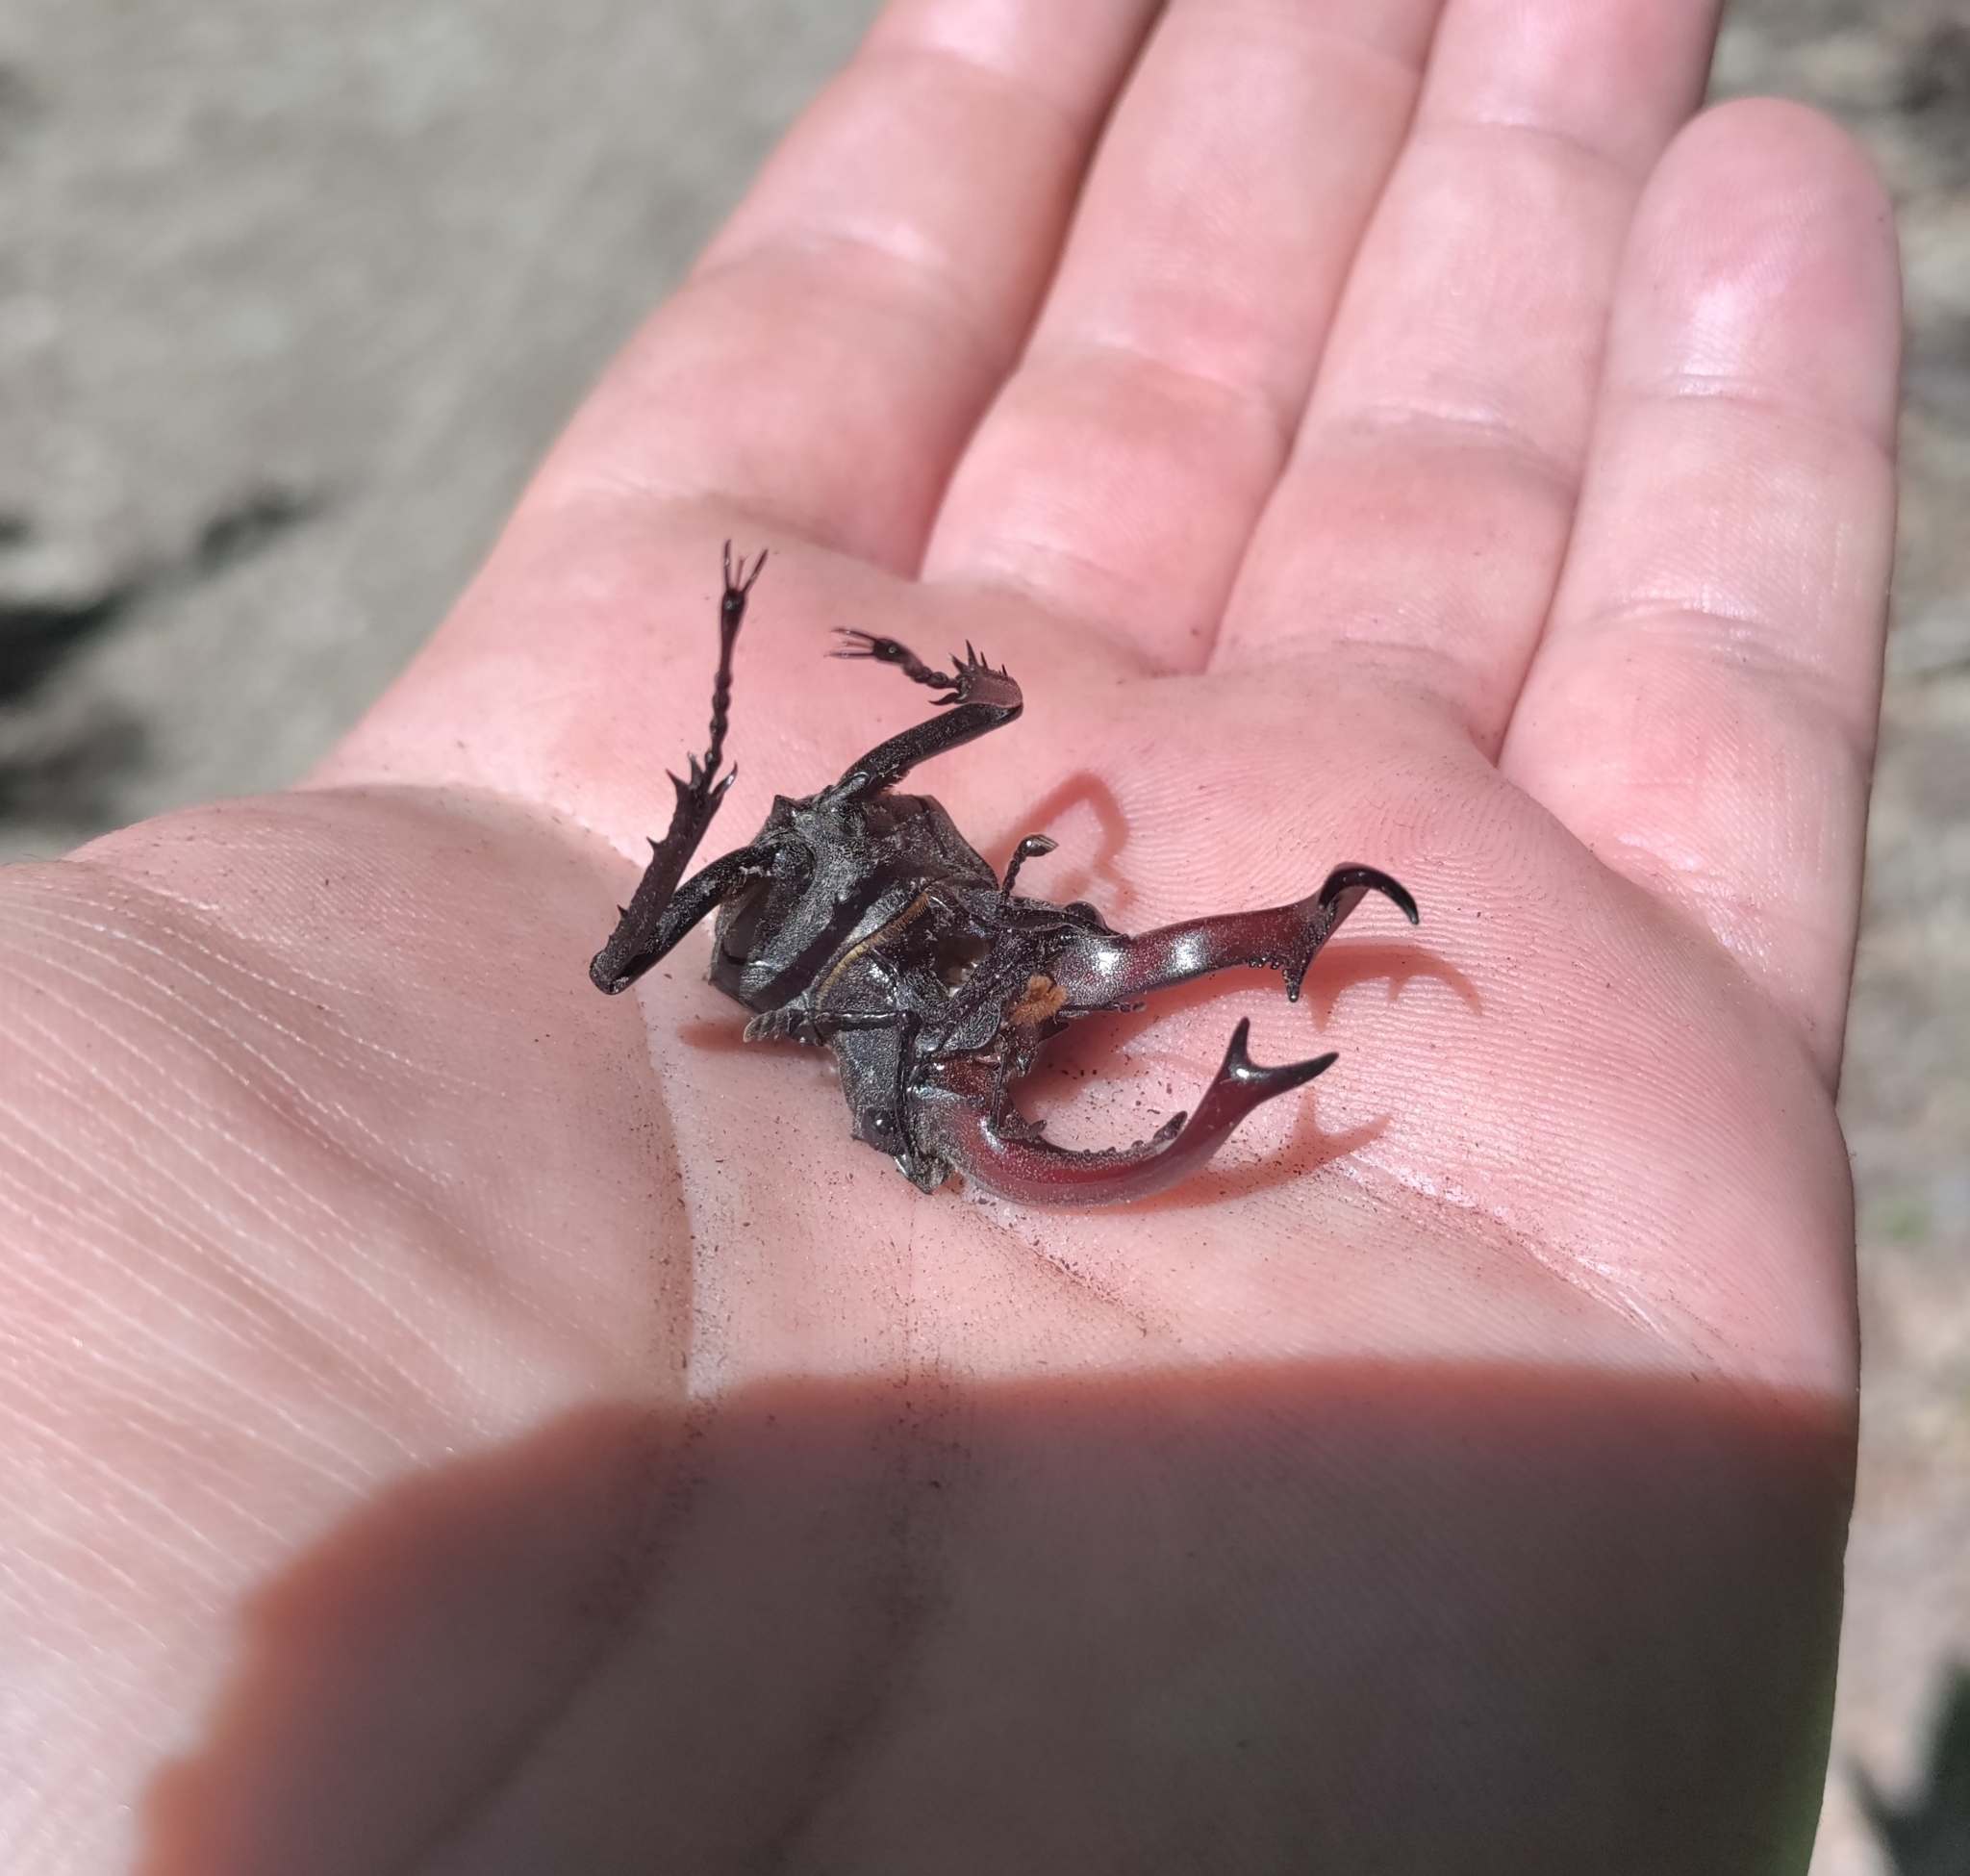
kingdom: Animalia
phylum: Arthropoda
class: Insecta
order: Coleoptera
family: Lucanidae
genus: Lucanus
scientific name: Lucanus cervus
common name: Stag beetle
